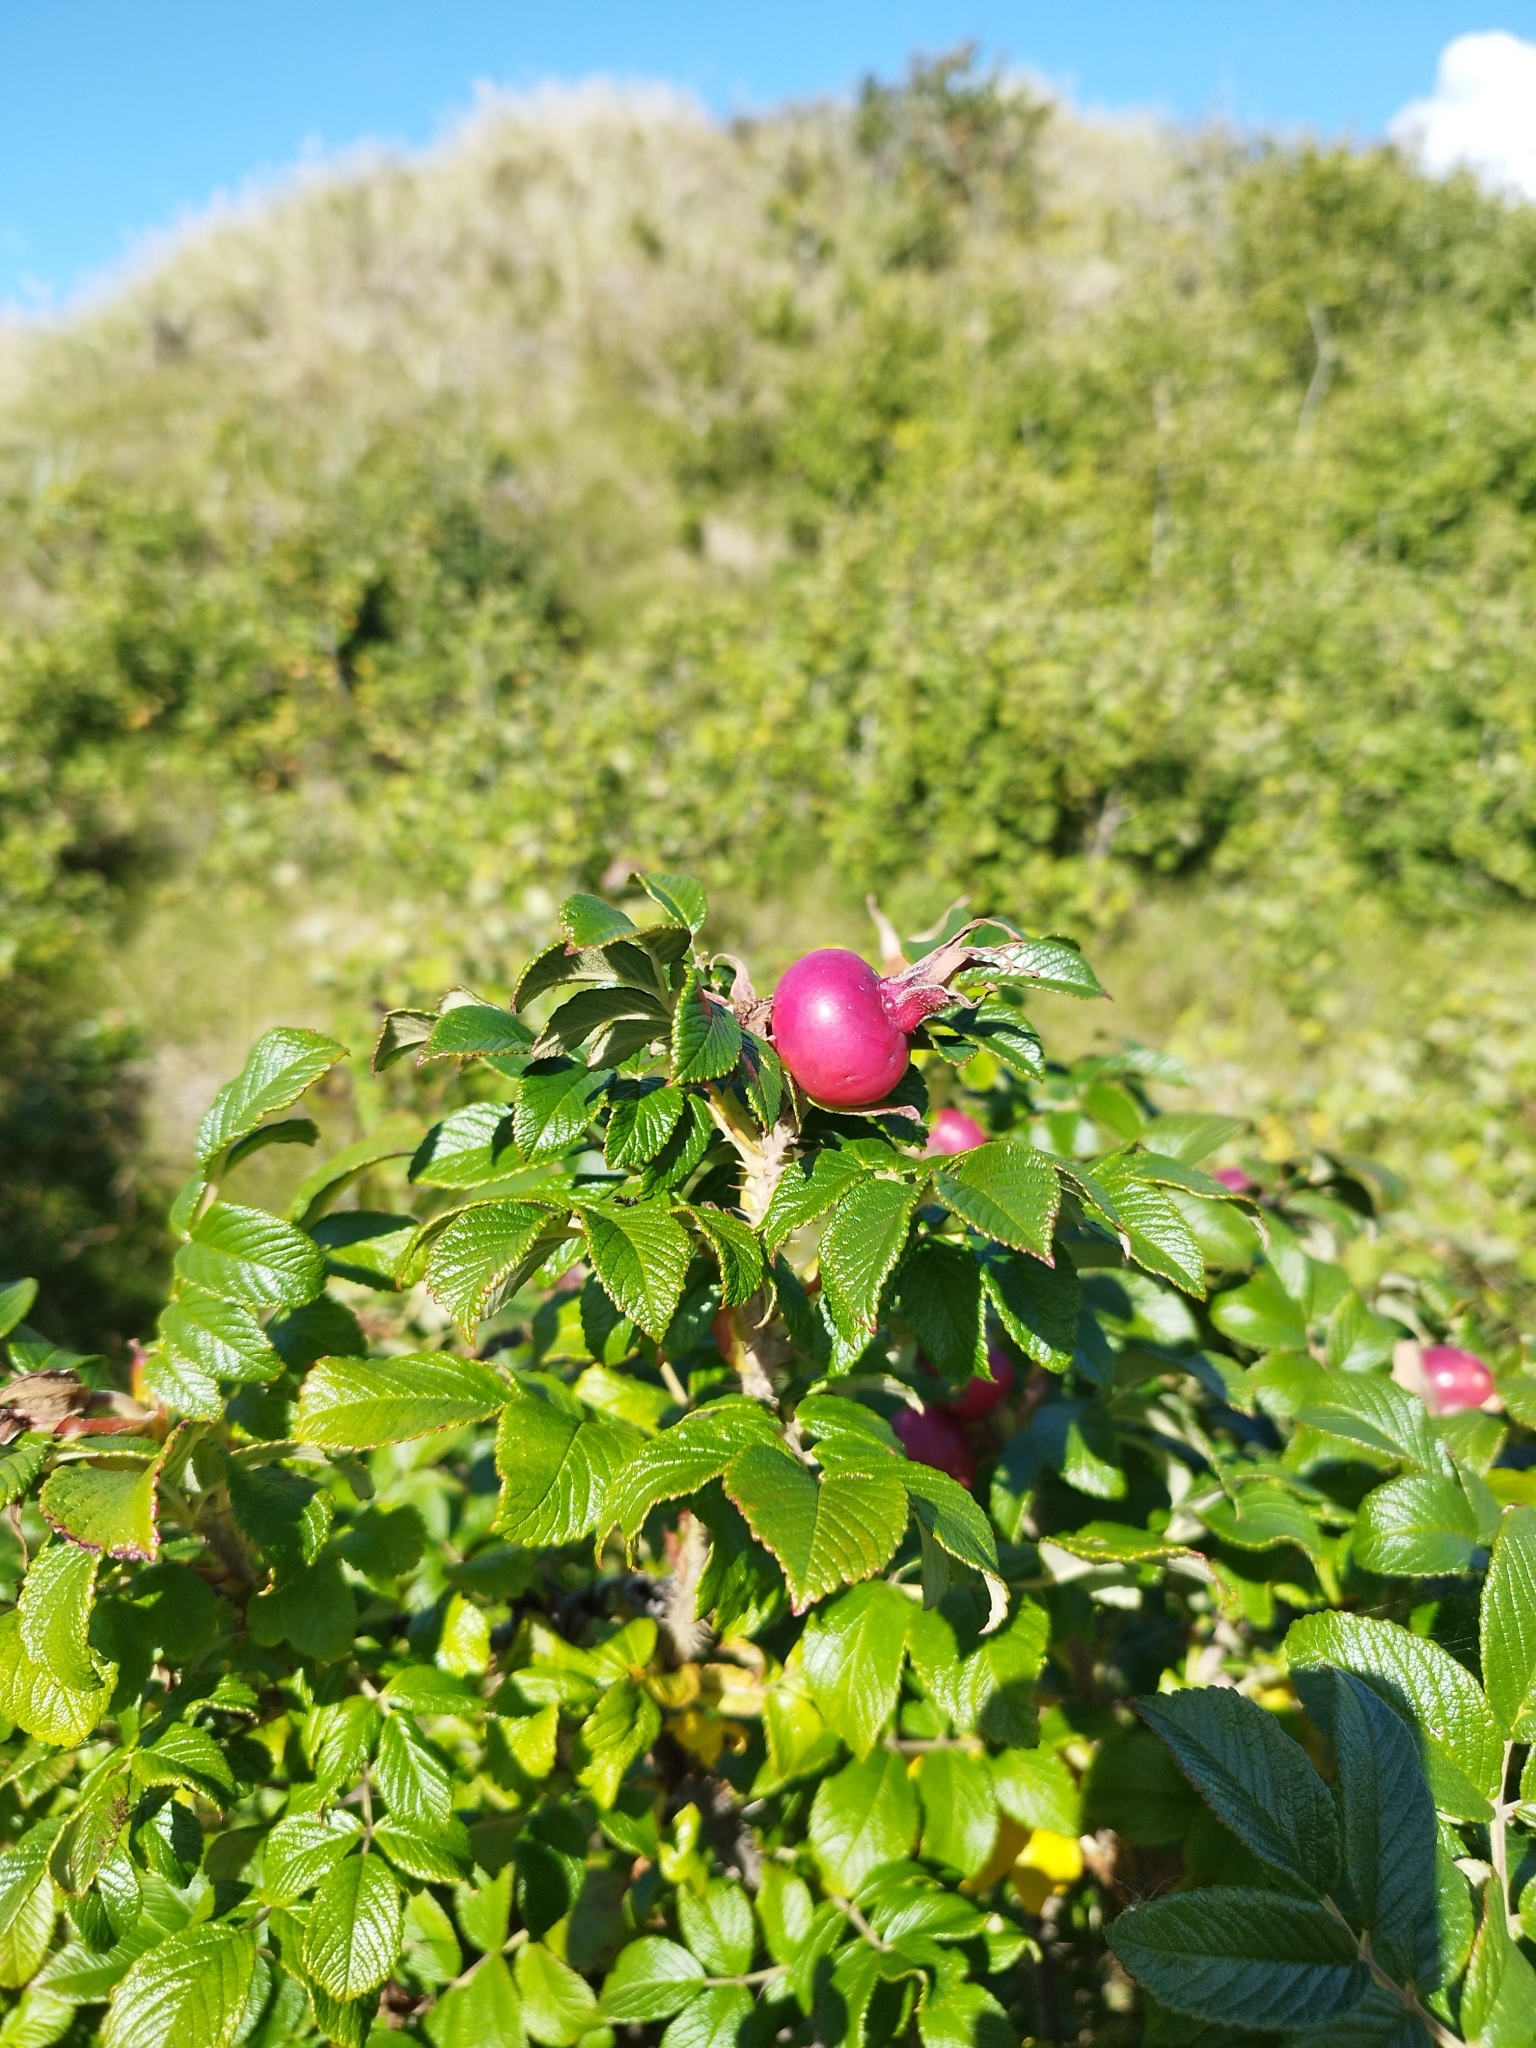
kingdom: Plantae
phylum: Tracheophyta
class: Magnoliopsida
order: Rosales
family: Rosaceae
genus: Rosa
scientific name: Rosa rugosa
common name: Japanese rose
